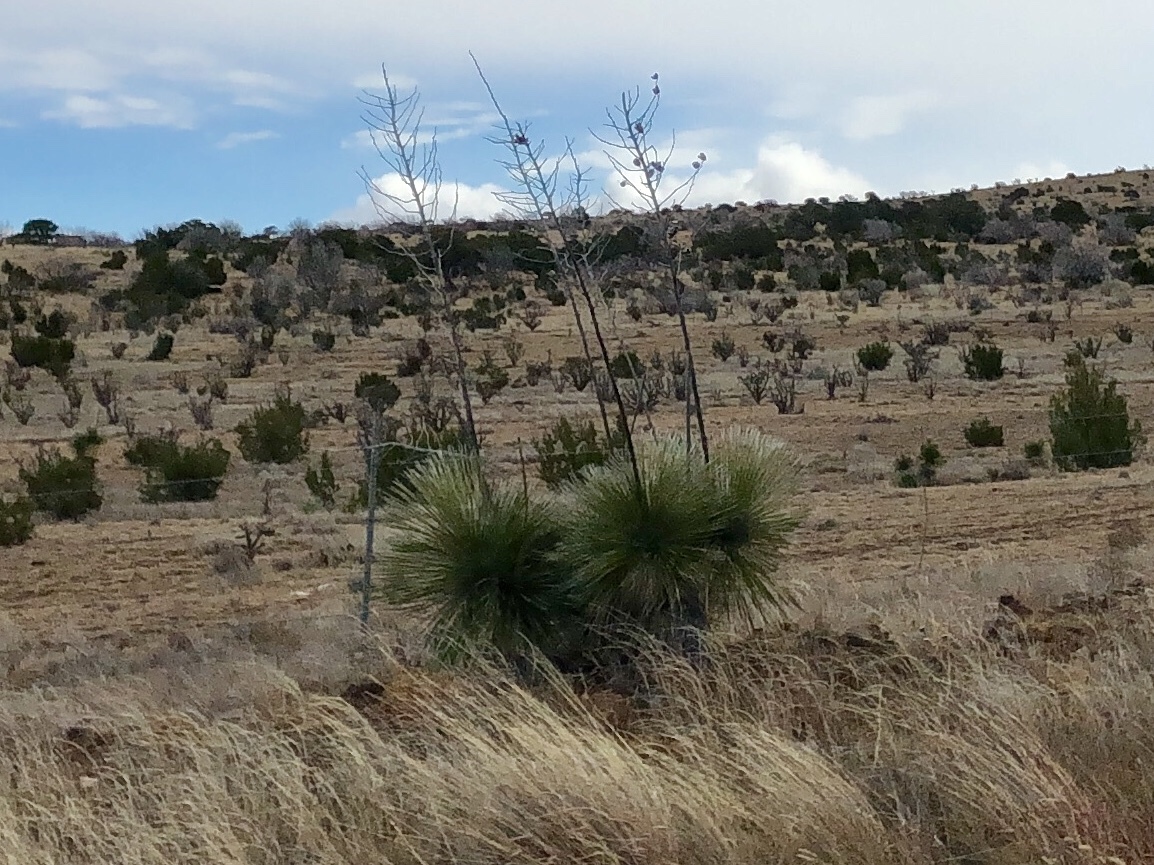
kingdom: Plantae
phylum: Tracheophyta
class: Liliopsida
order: Asparagales
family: Asparagaceae
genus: Yucca
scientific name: Yucca elata
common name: Palmella
